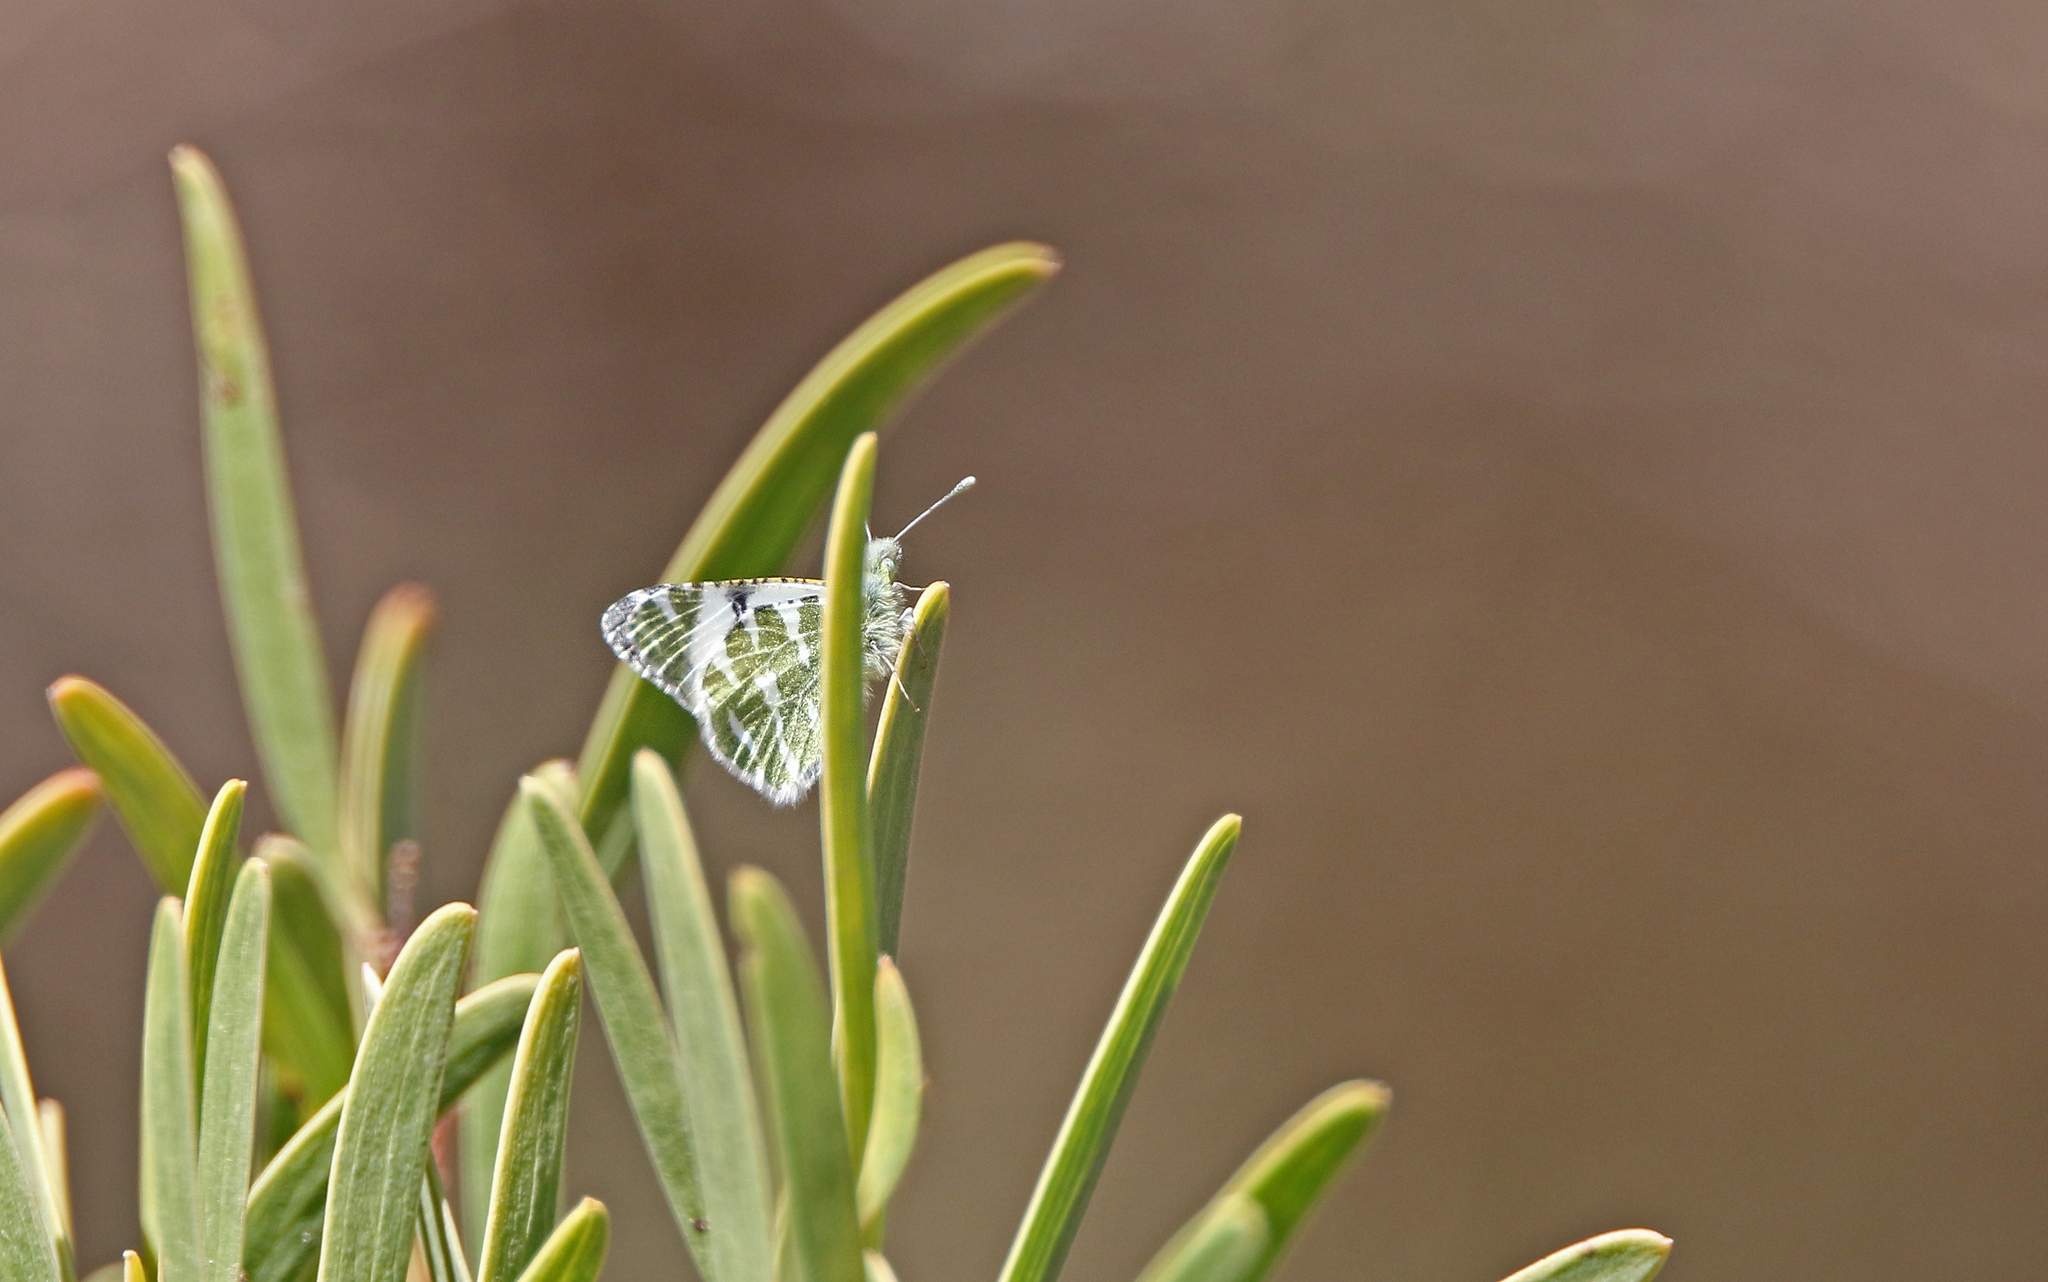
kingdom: Animalia
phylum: Arthropoda
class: Insecta
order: Lepidoptera
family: Pieridae
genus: Euchloe
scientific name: Euchloe hesperidum
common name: Canary green-striped white
